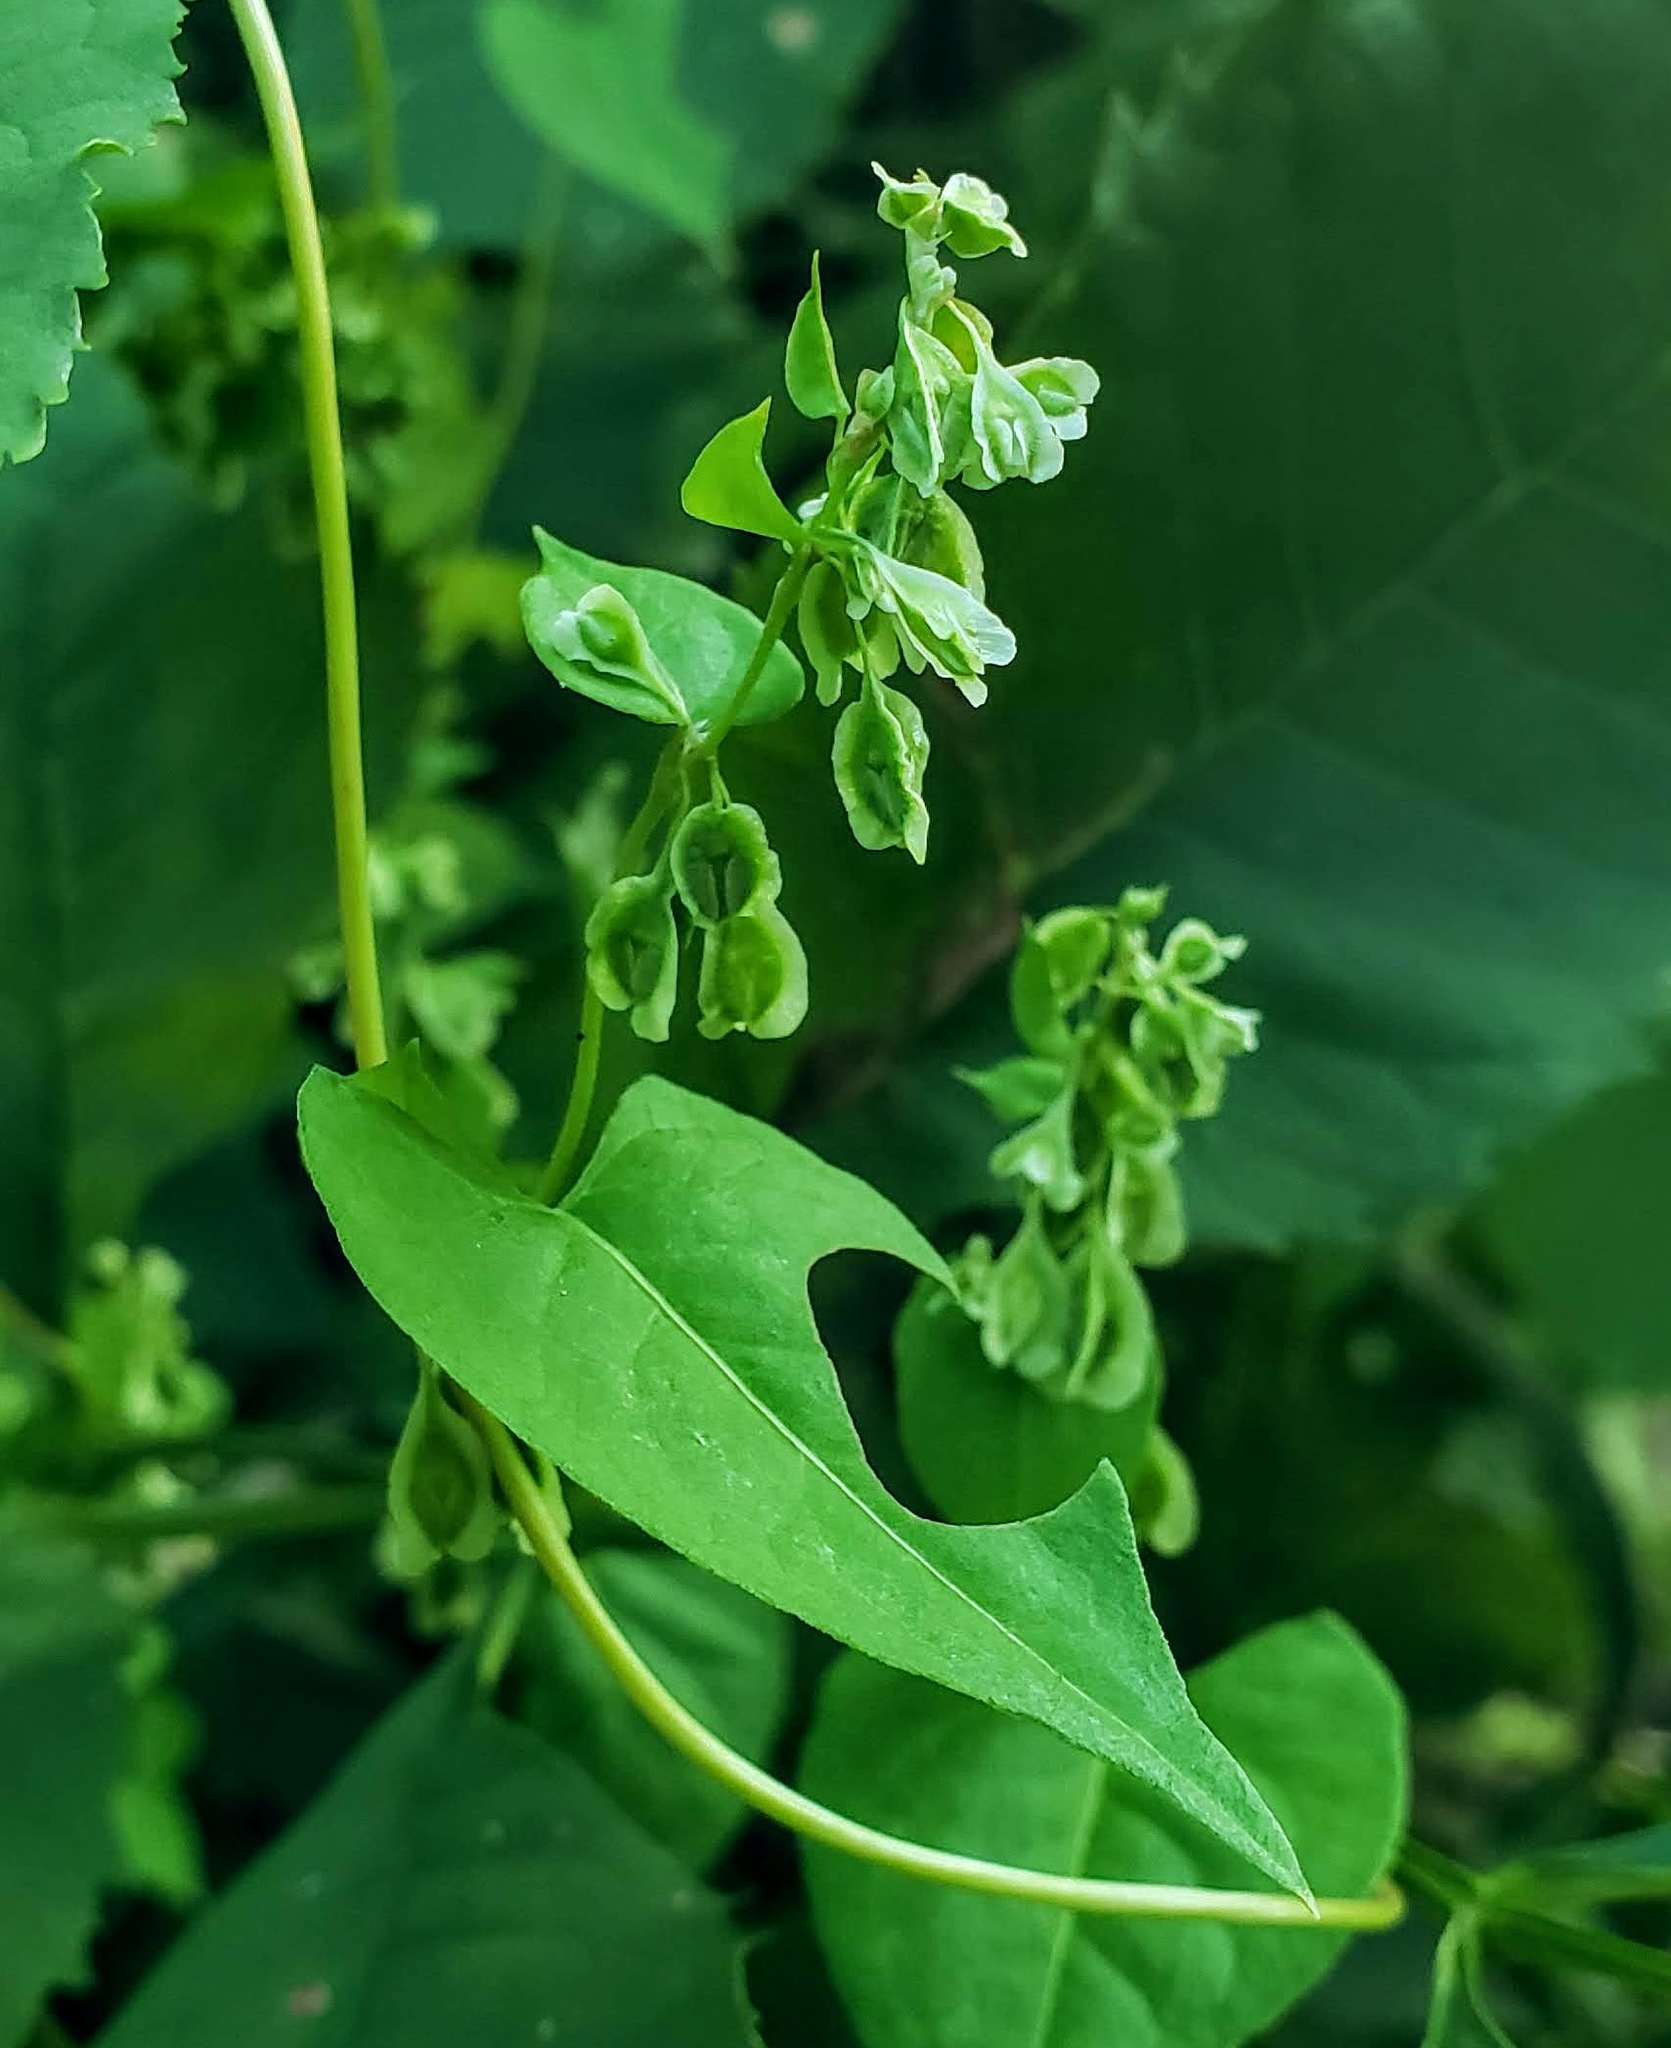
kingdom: Plantae
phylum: Tracheophyta
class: Magnoliopsida
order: Caryophyllales
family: Polygonaceae
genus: Fallopia
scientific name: Fallopia scandens
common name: Climbing false buckwheat
